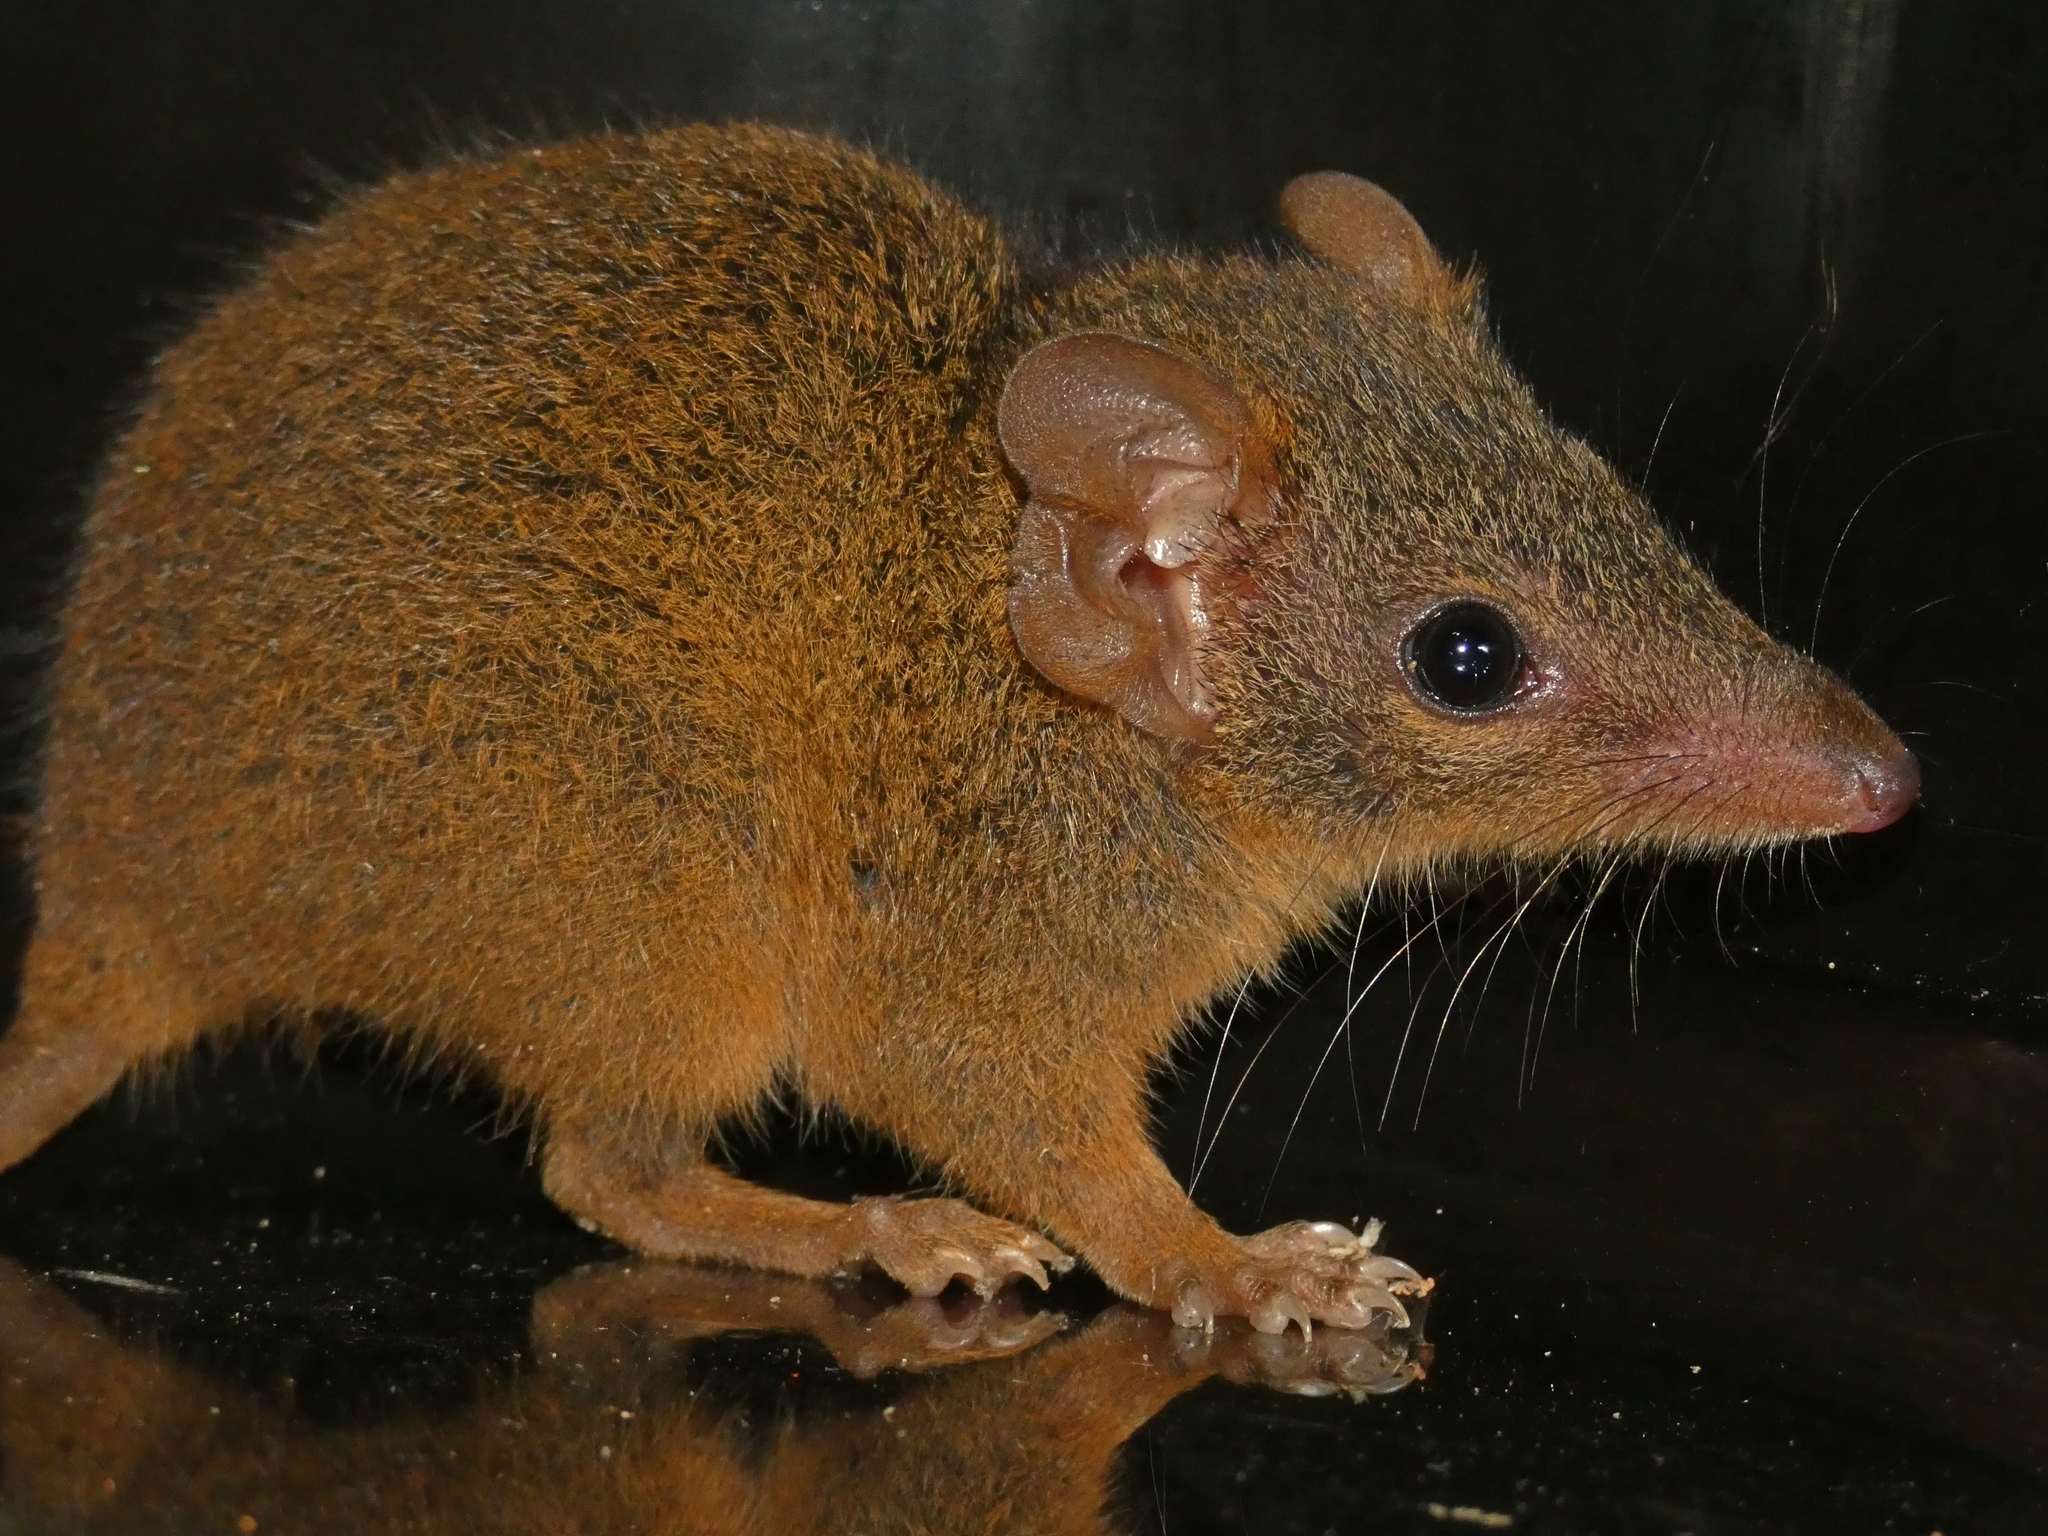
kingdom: Animalia
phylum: Chordata
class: Mammalia
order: Dasyuromorphia
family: Dasyuridae
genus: Antechinus
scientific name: Antechinus flavipes
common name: Yellow-footed antechinus
